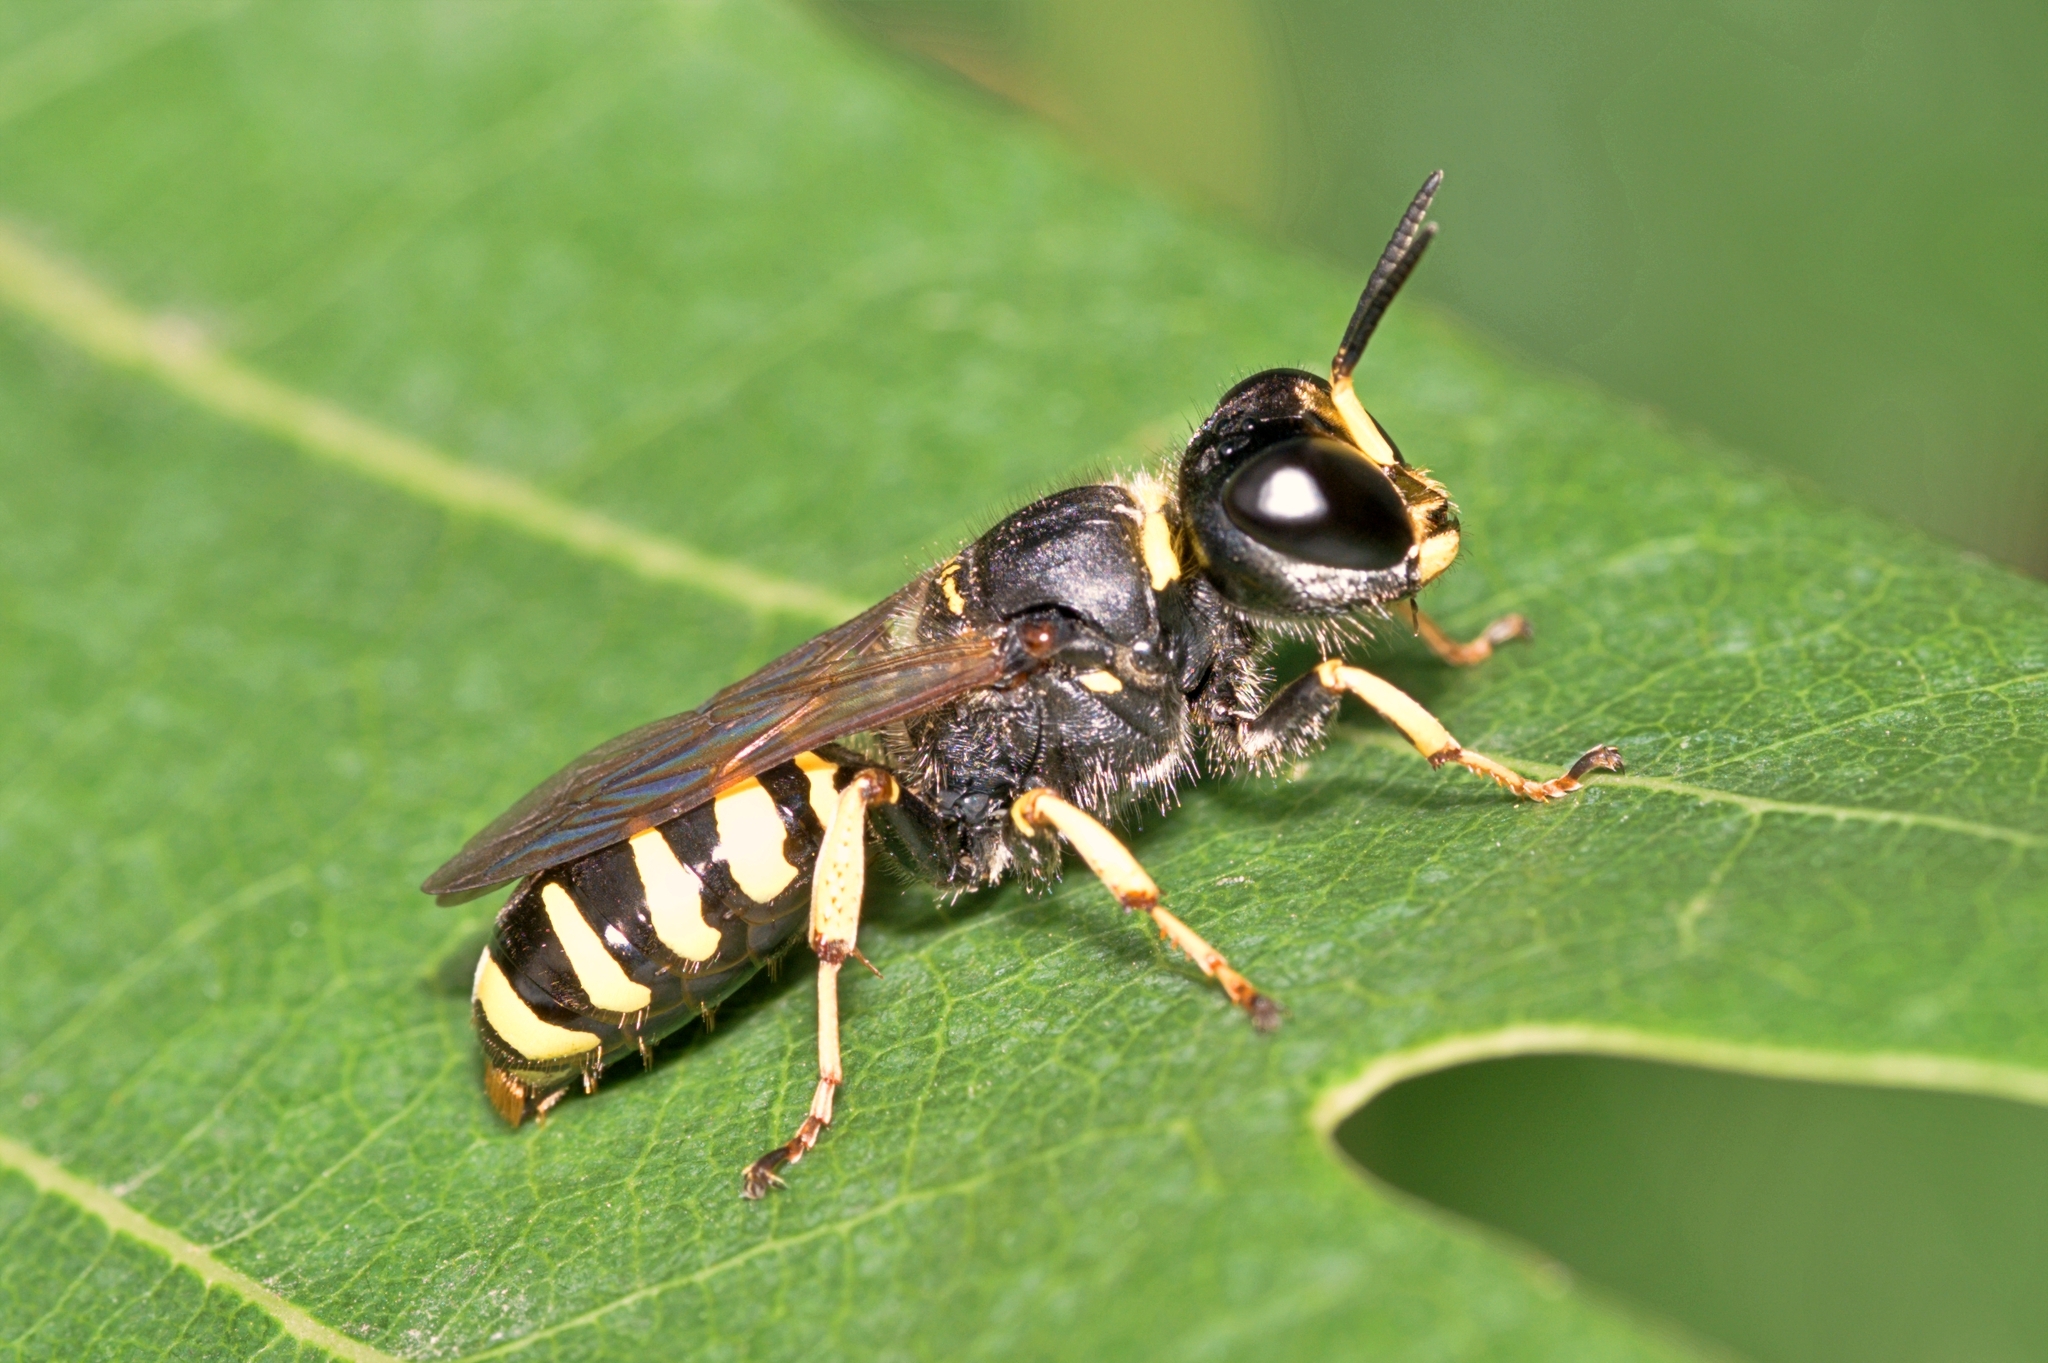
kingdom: Animalia
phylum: Arthropoda
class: Insecta
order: Hymenoptera
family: Crabronidae
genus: Ectemnius
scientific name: Ectemnius cephalotes
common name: Sphecid wasp
